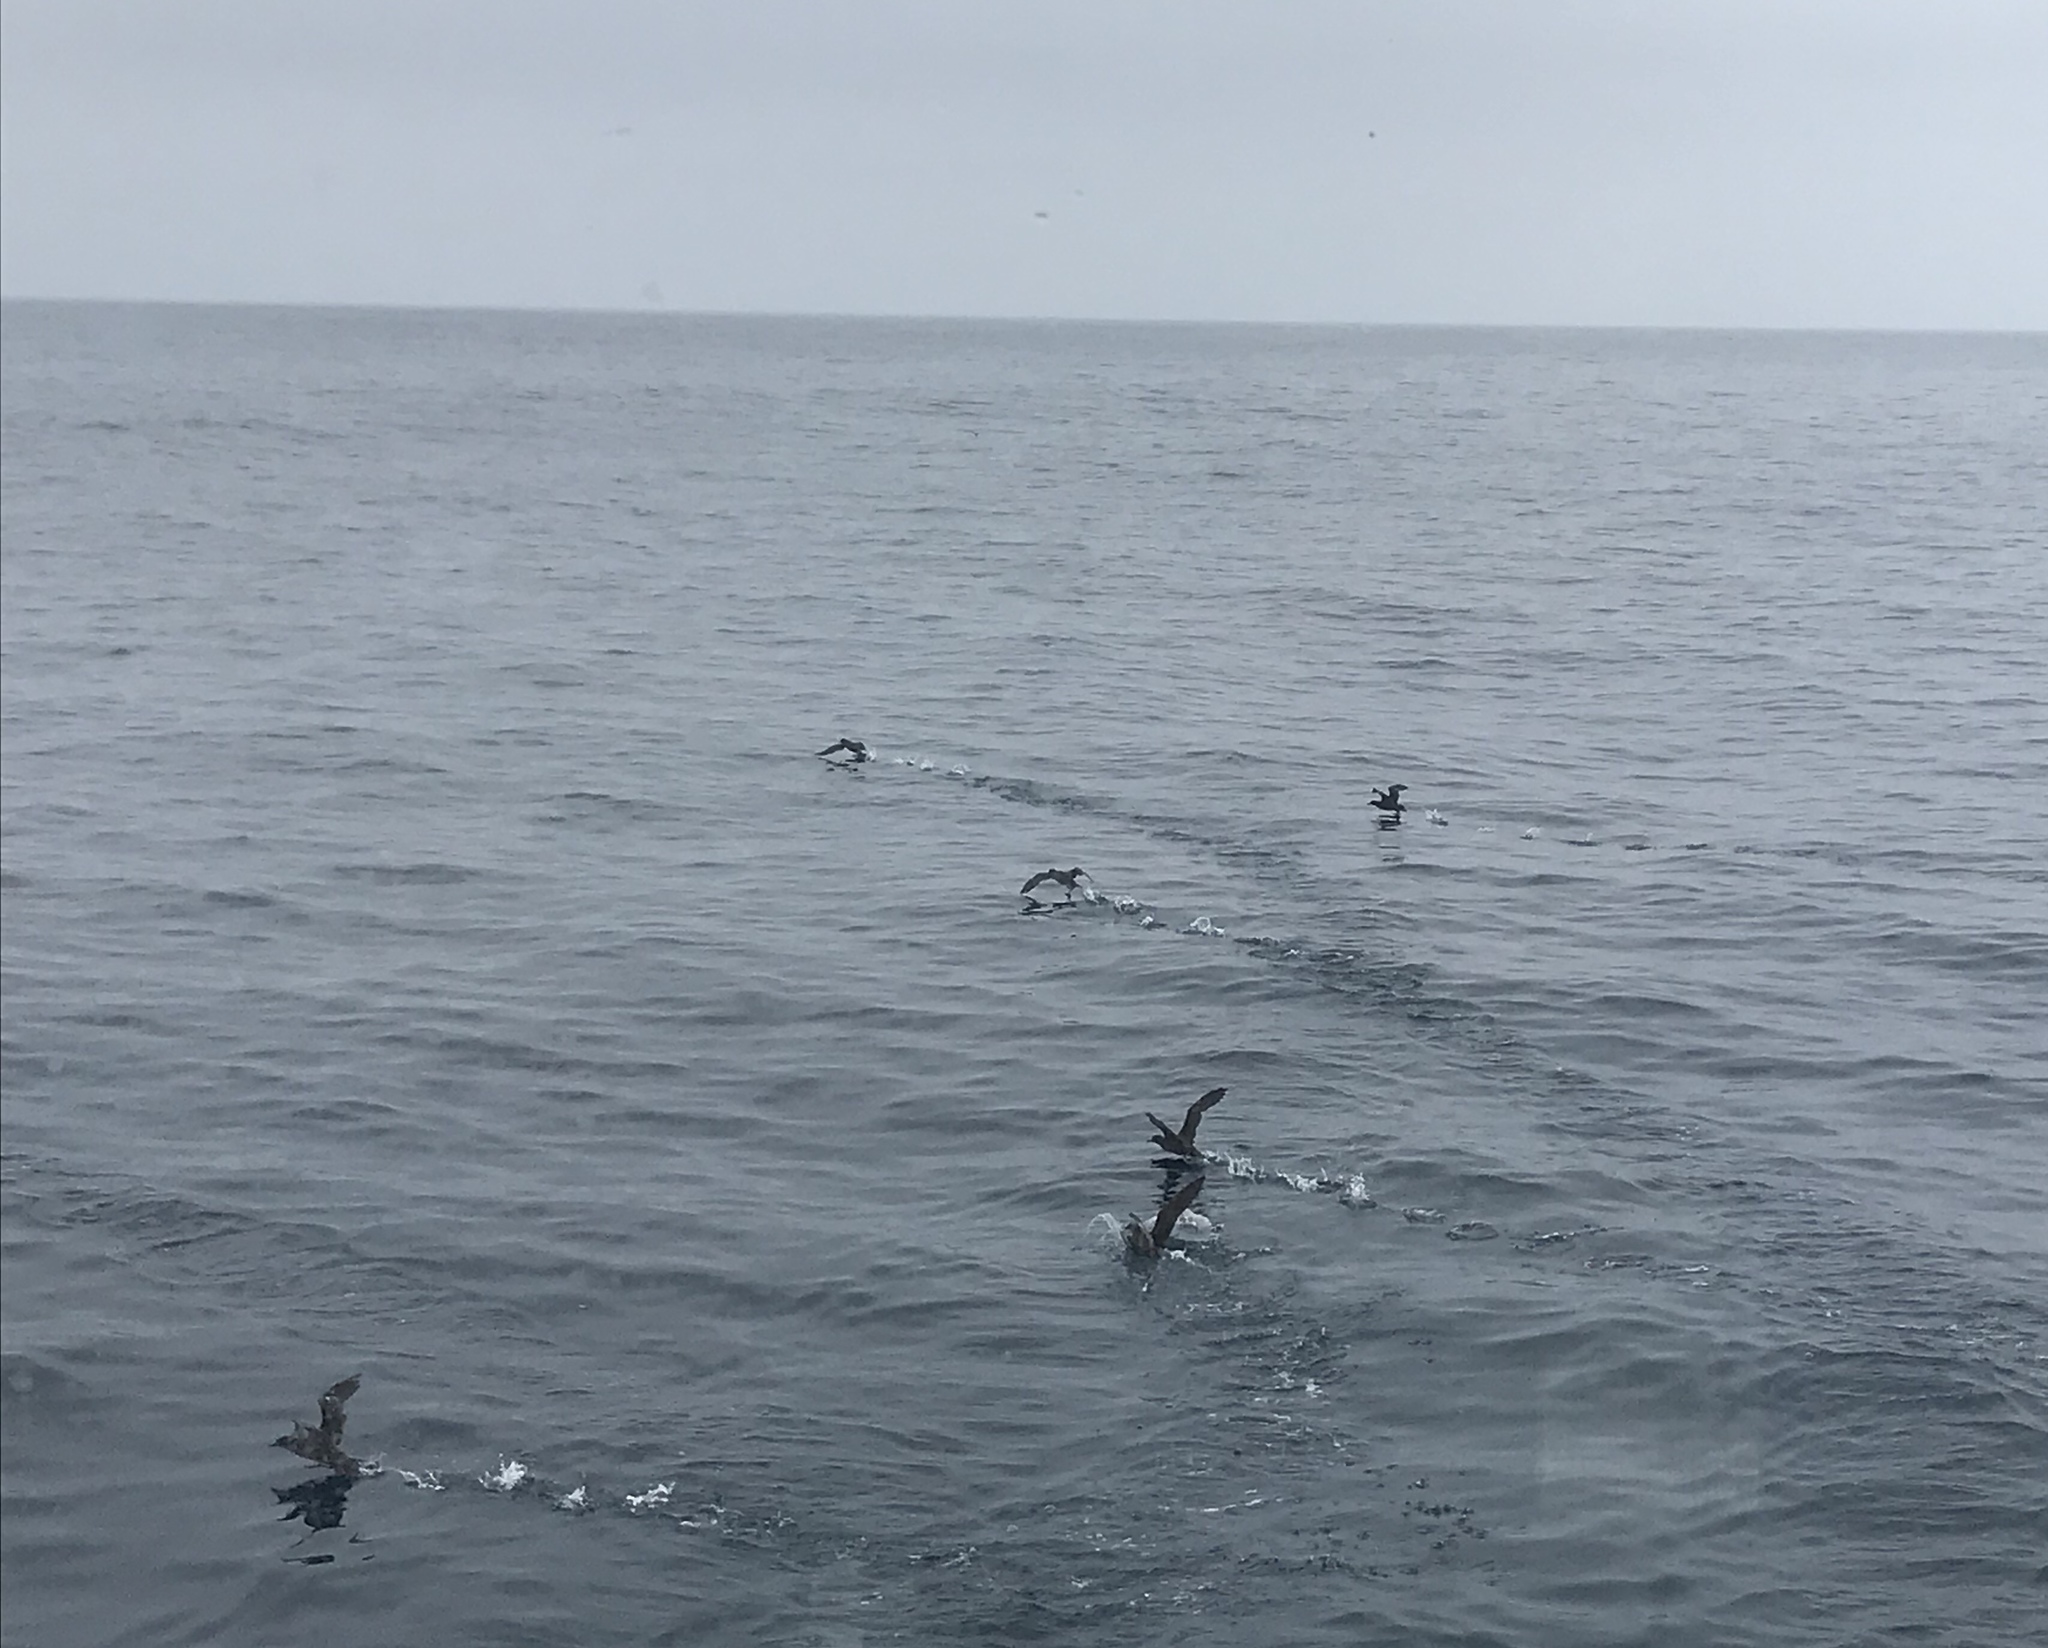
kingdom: Animalia
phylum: Chordata
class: Aves
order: Procellariiformes
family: Procellariidae
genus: Puffinus
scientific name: Puffinus griseus
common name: Sooty shearwater
